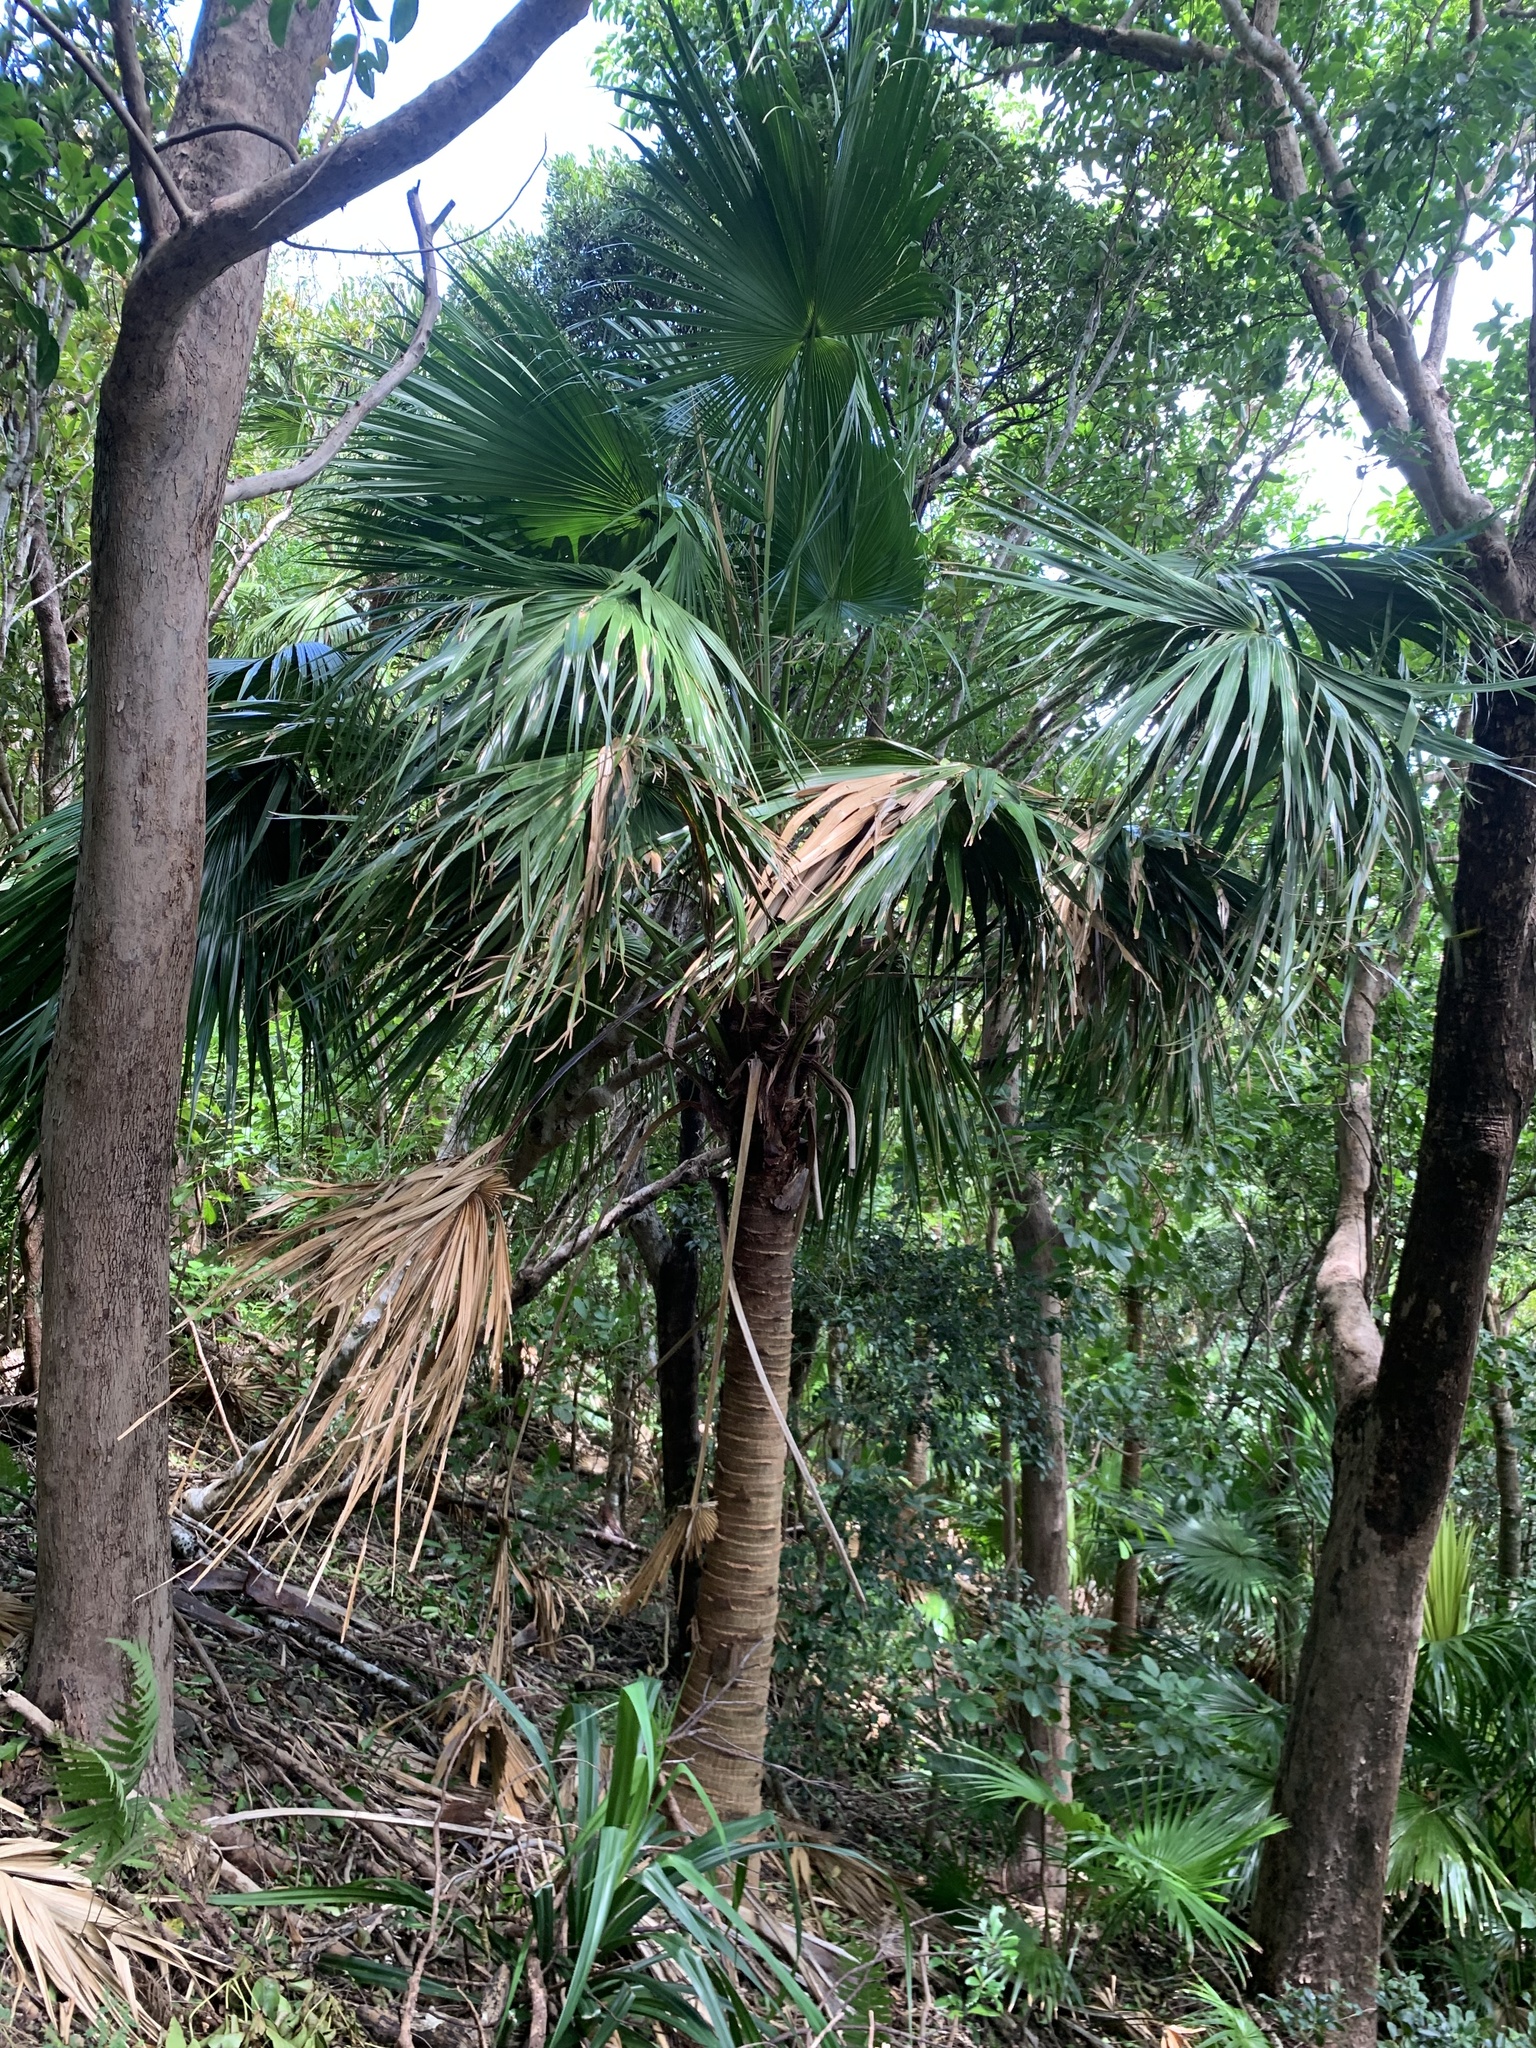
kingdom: Plantae
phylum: Tracheophyta
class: Liliopsida
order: Arecales
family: Arecaceae
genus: Livistona
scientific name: Livistona boninensis
